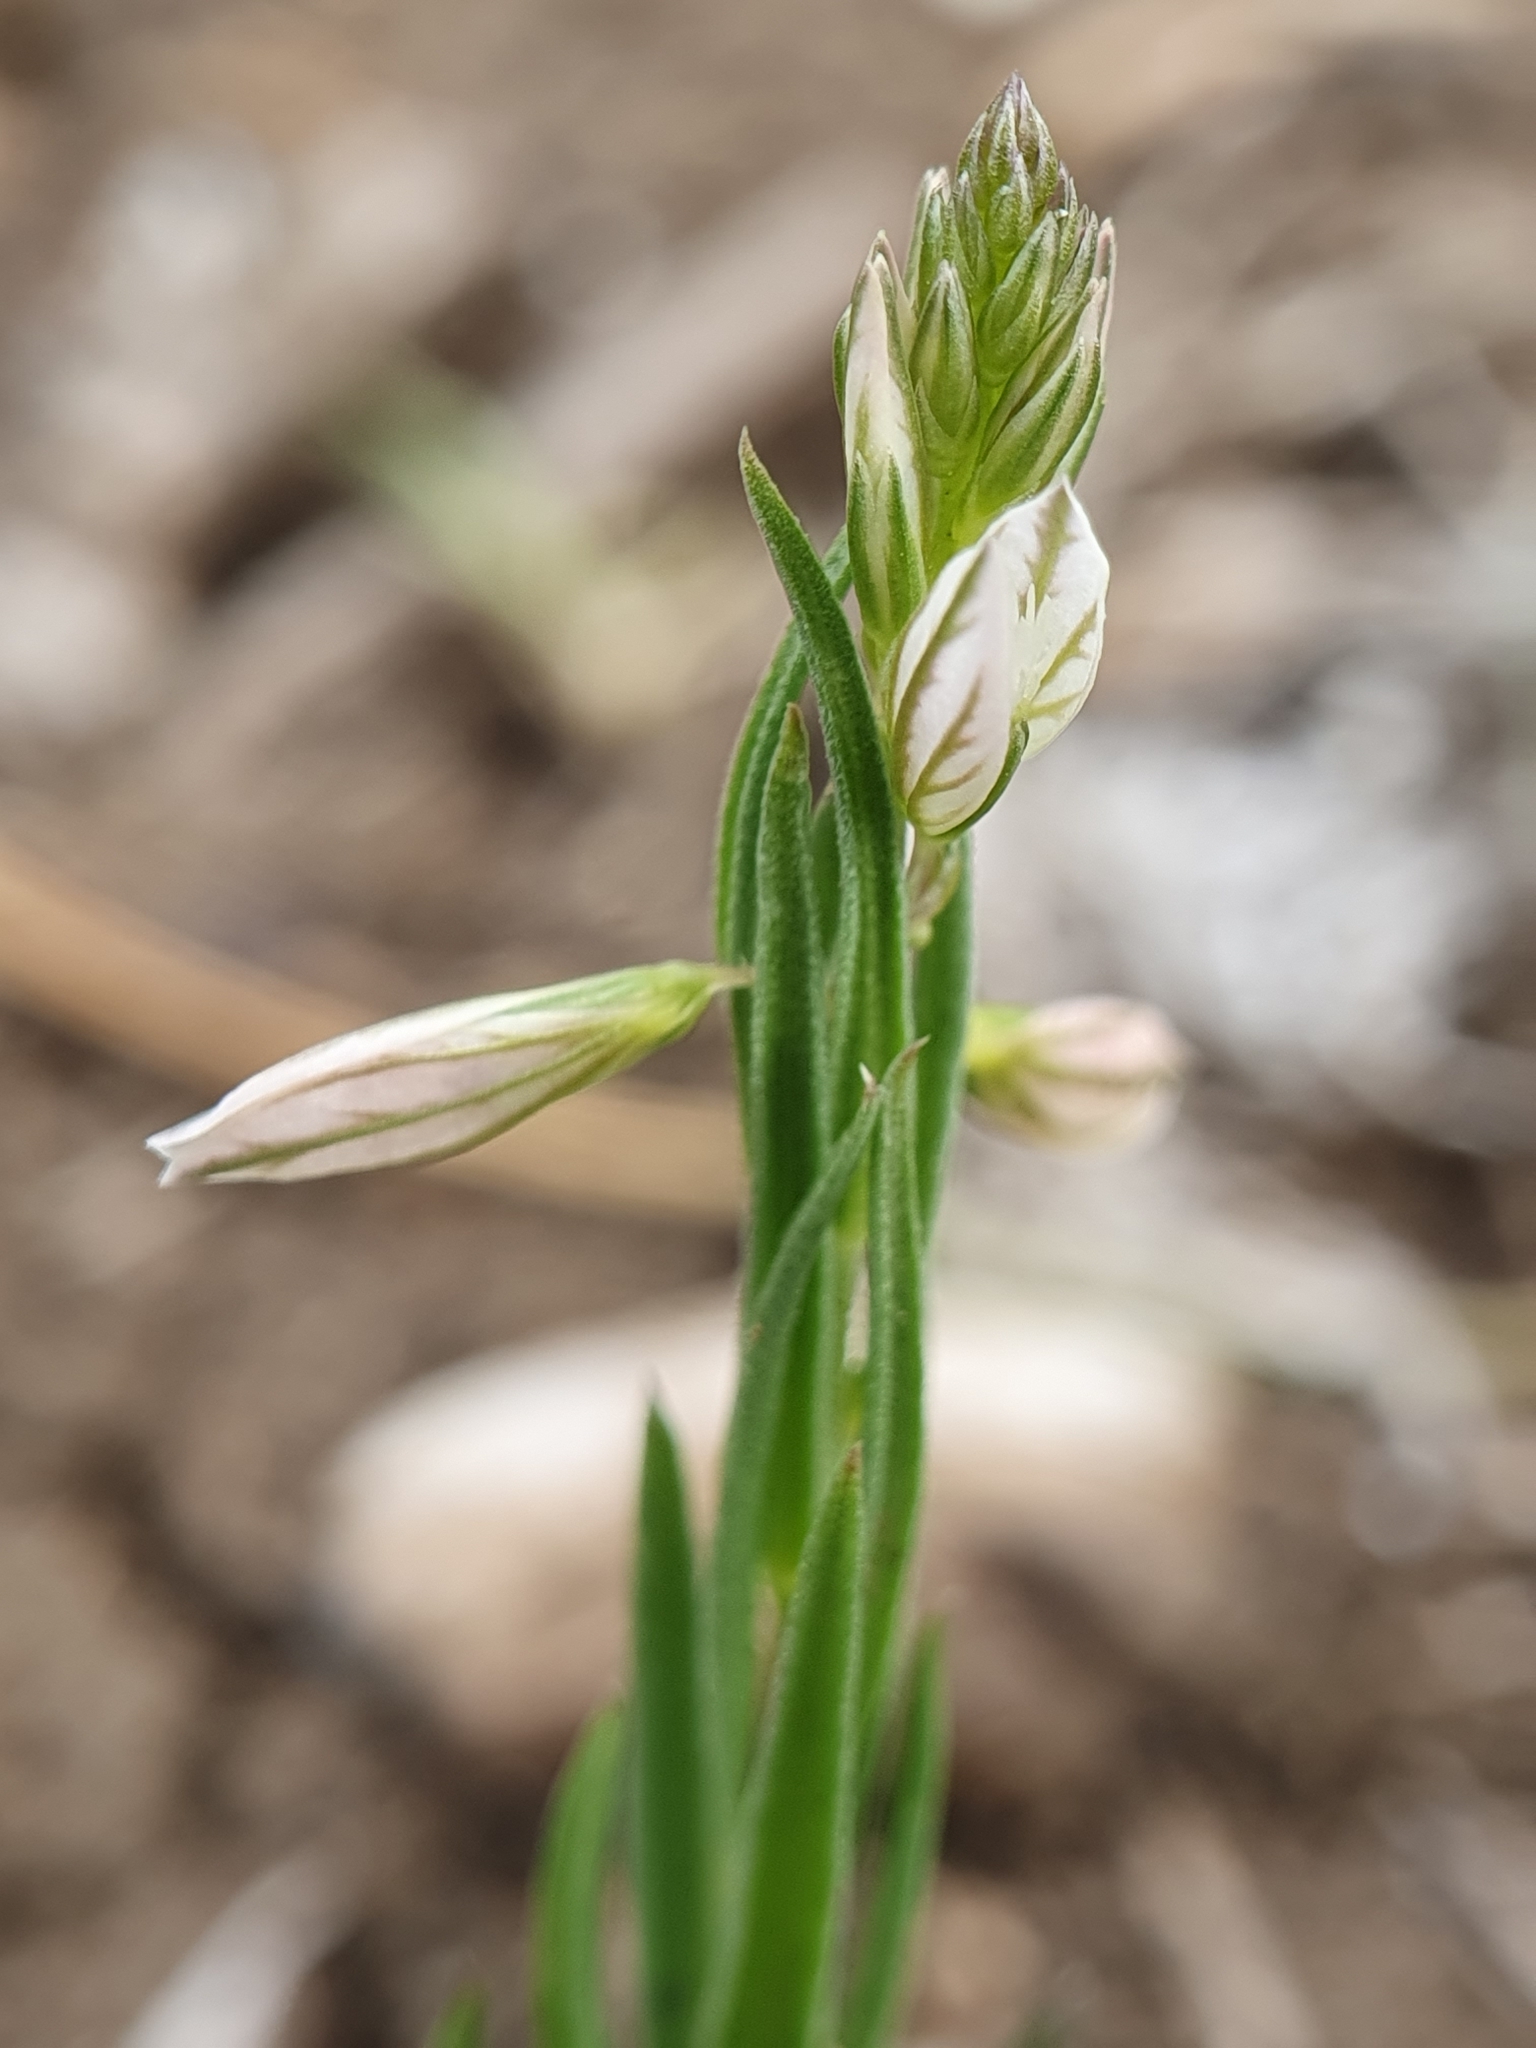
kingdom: Plantae
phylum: Tracheophyta
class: Magnoliopsida
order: Fabales
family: Polygalaceae
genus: Polygala
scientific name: Polygala monspeliaca
